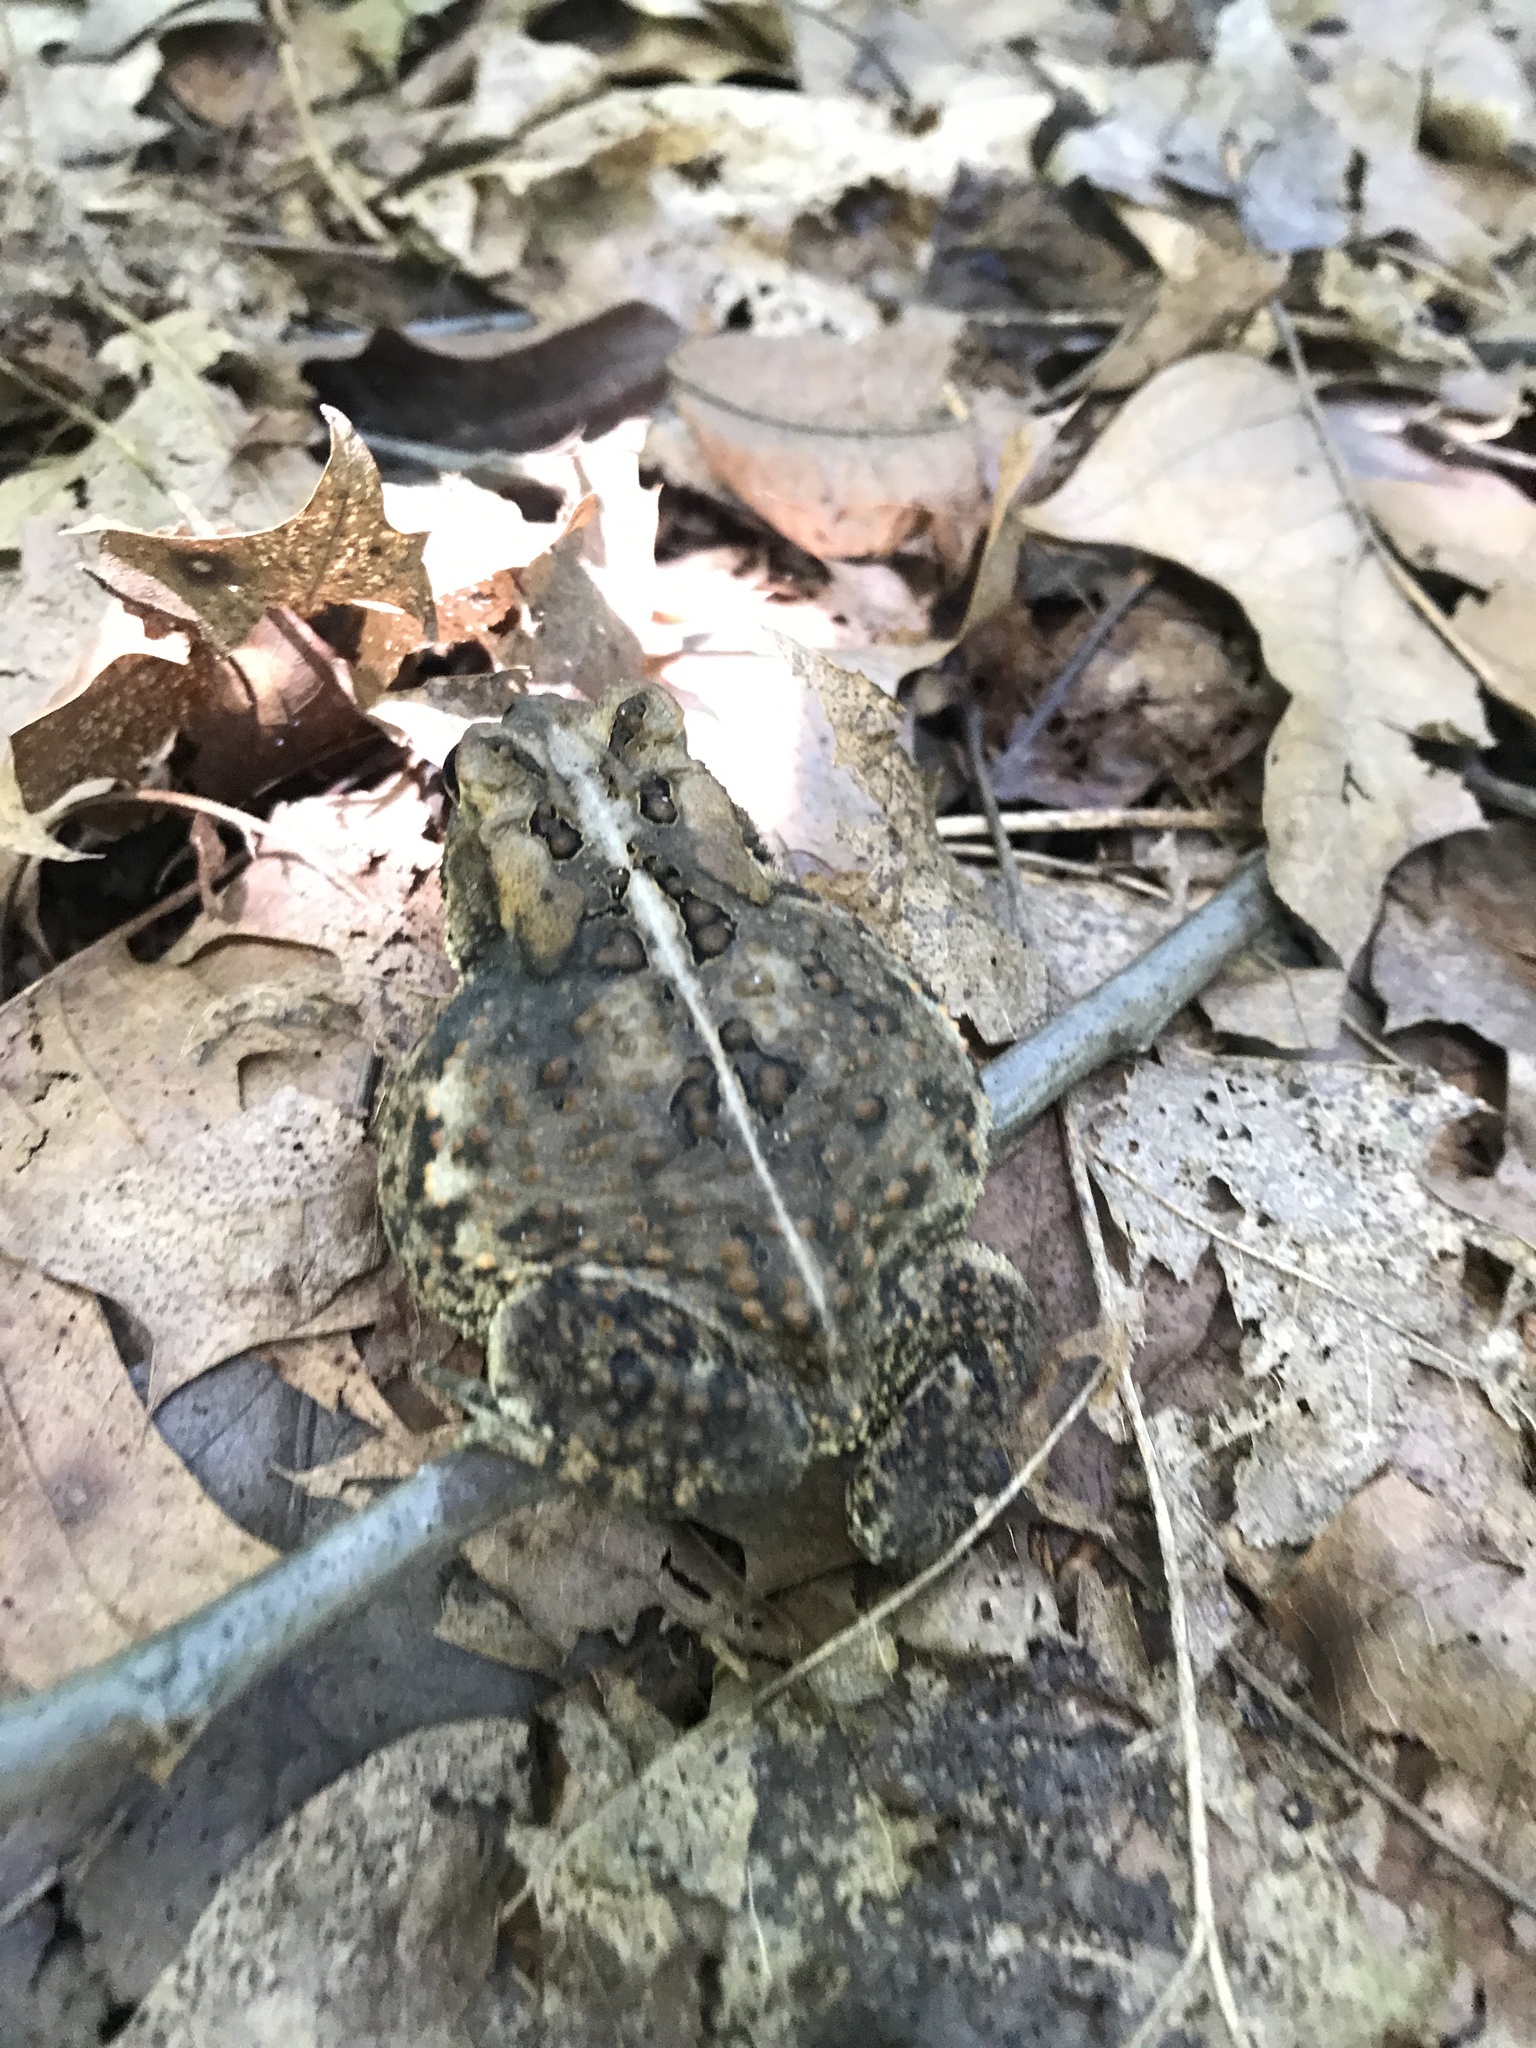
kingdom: Animalia
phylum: Chordata
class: Amphibia
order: Anura
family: Bufonidae
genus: Anaxyrus
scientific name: Anaxyrus americanus
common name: American toad
